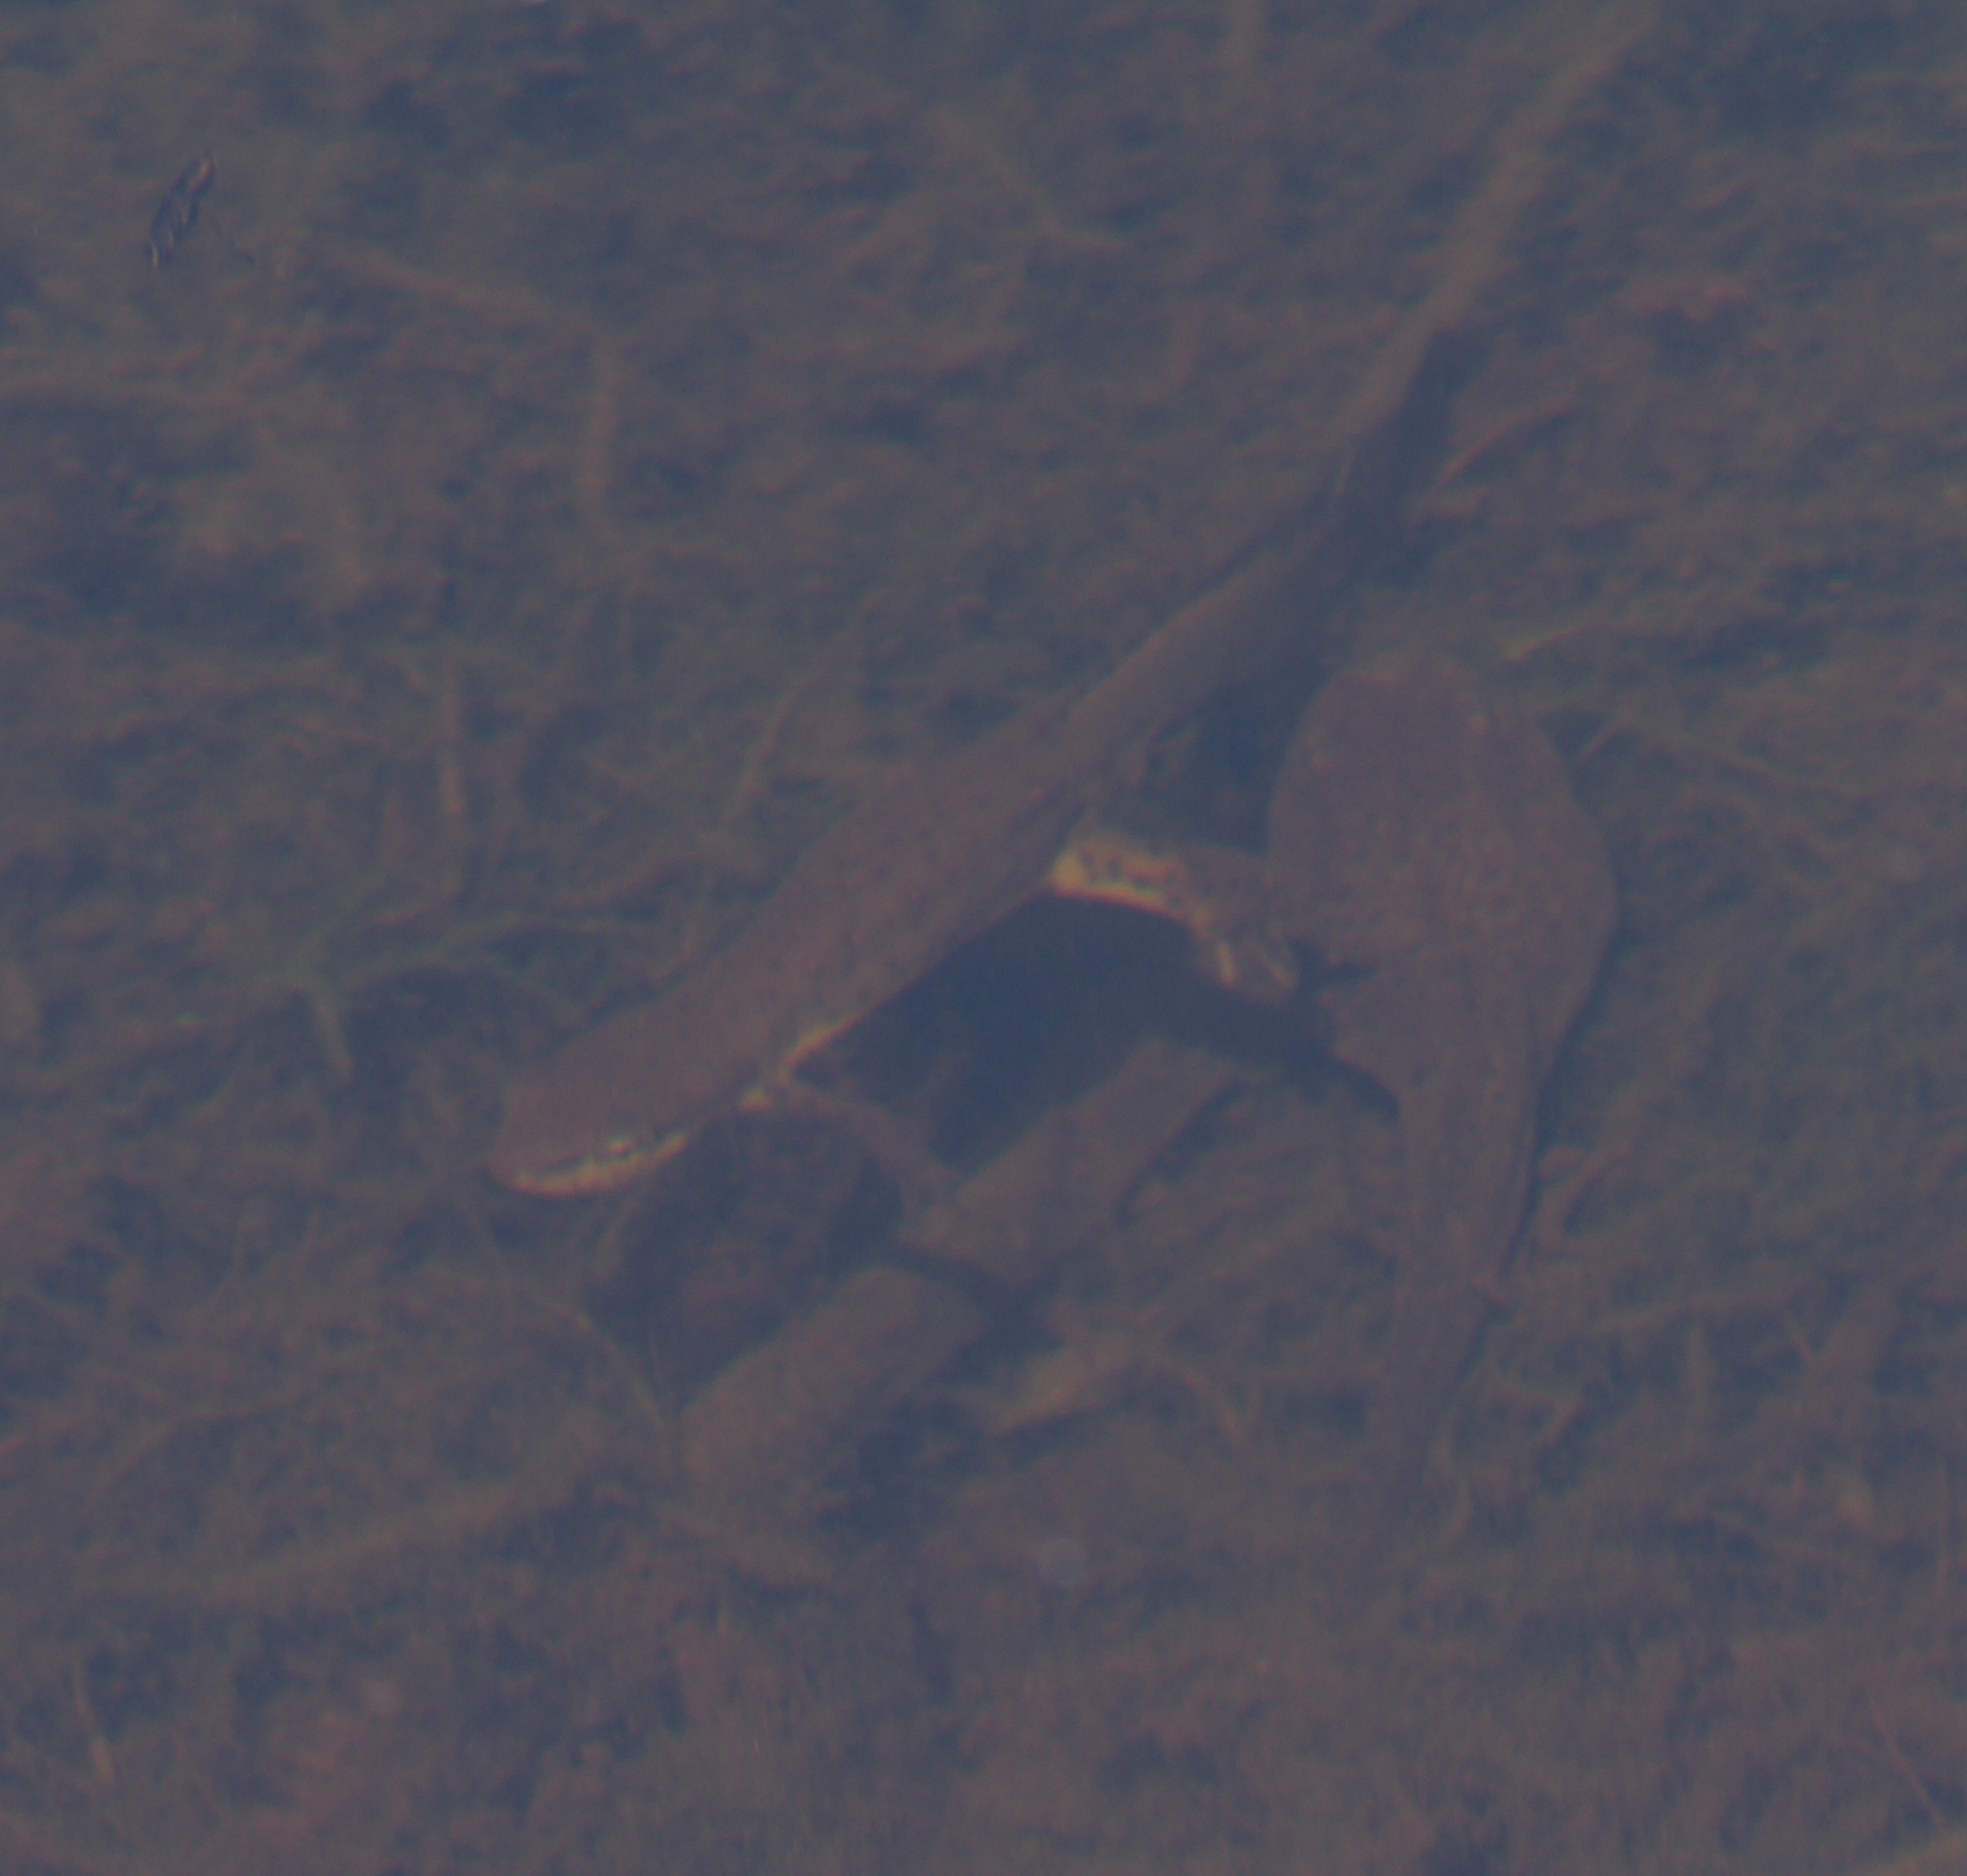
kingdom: Animalia
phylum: Chordata
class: Amphibia
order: Caudata
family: Salamandridae
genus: Notophthalmus
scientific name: Notophthalmus viridescens
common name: Eastern newt
